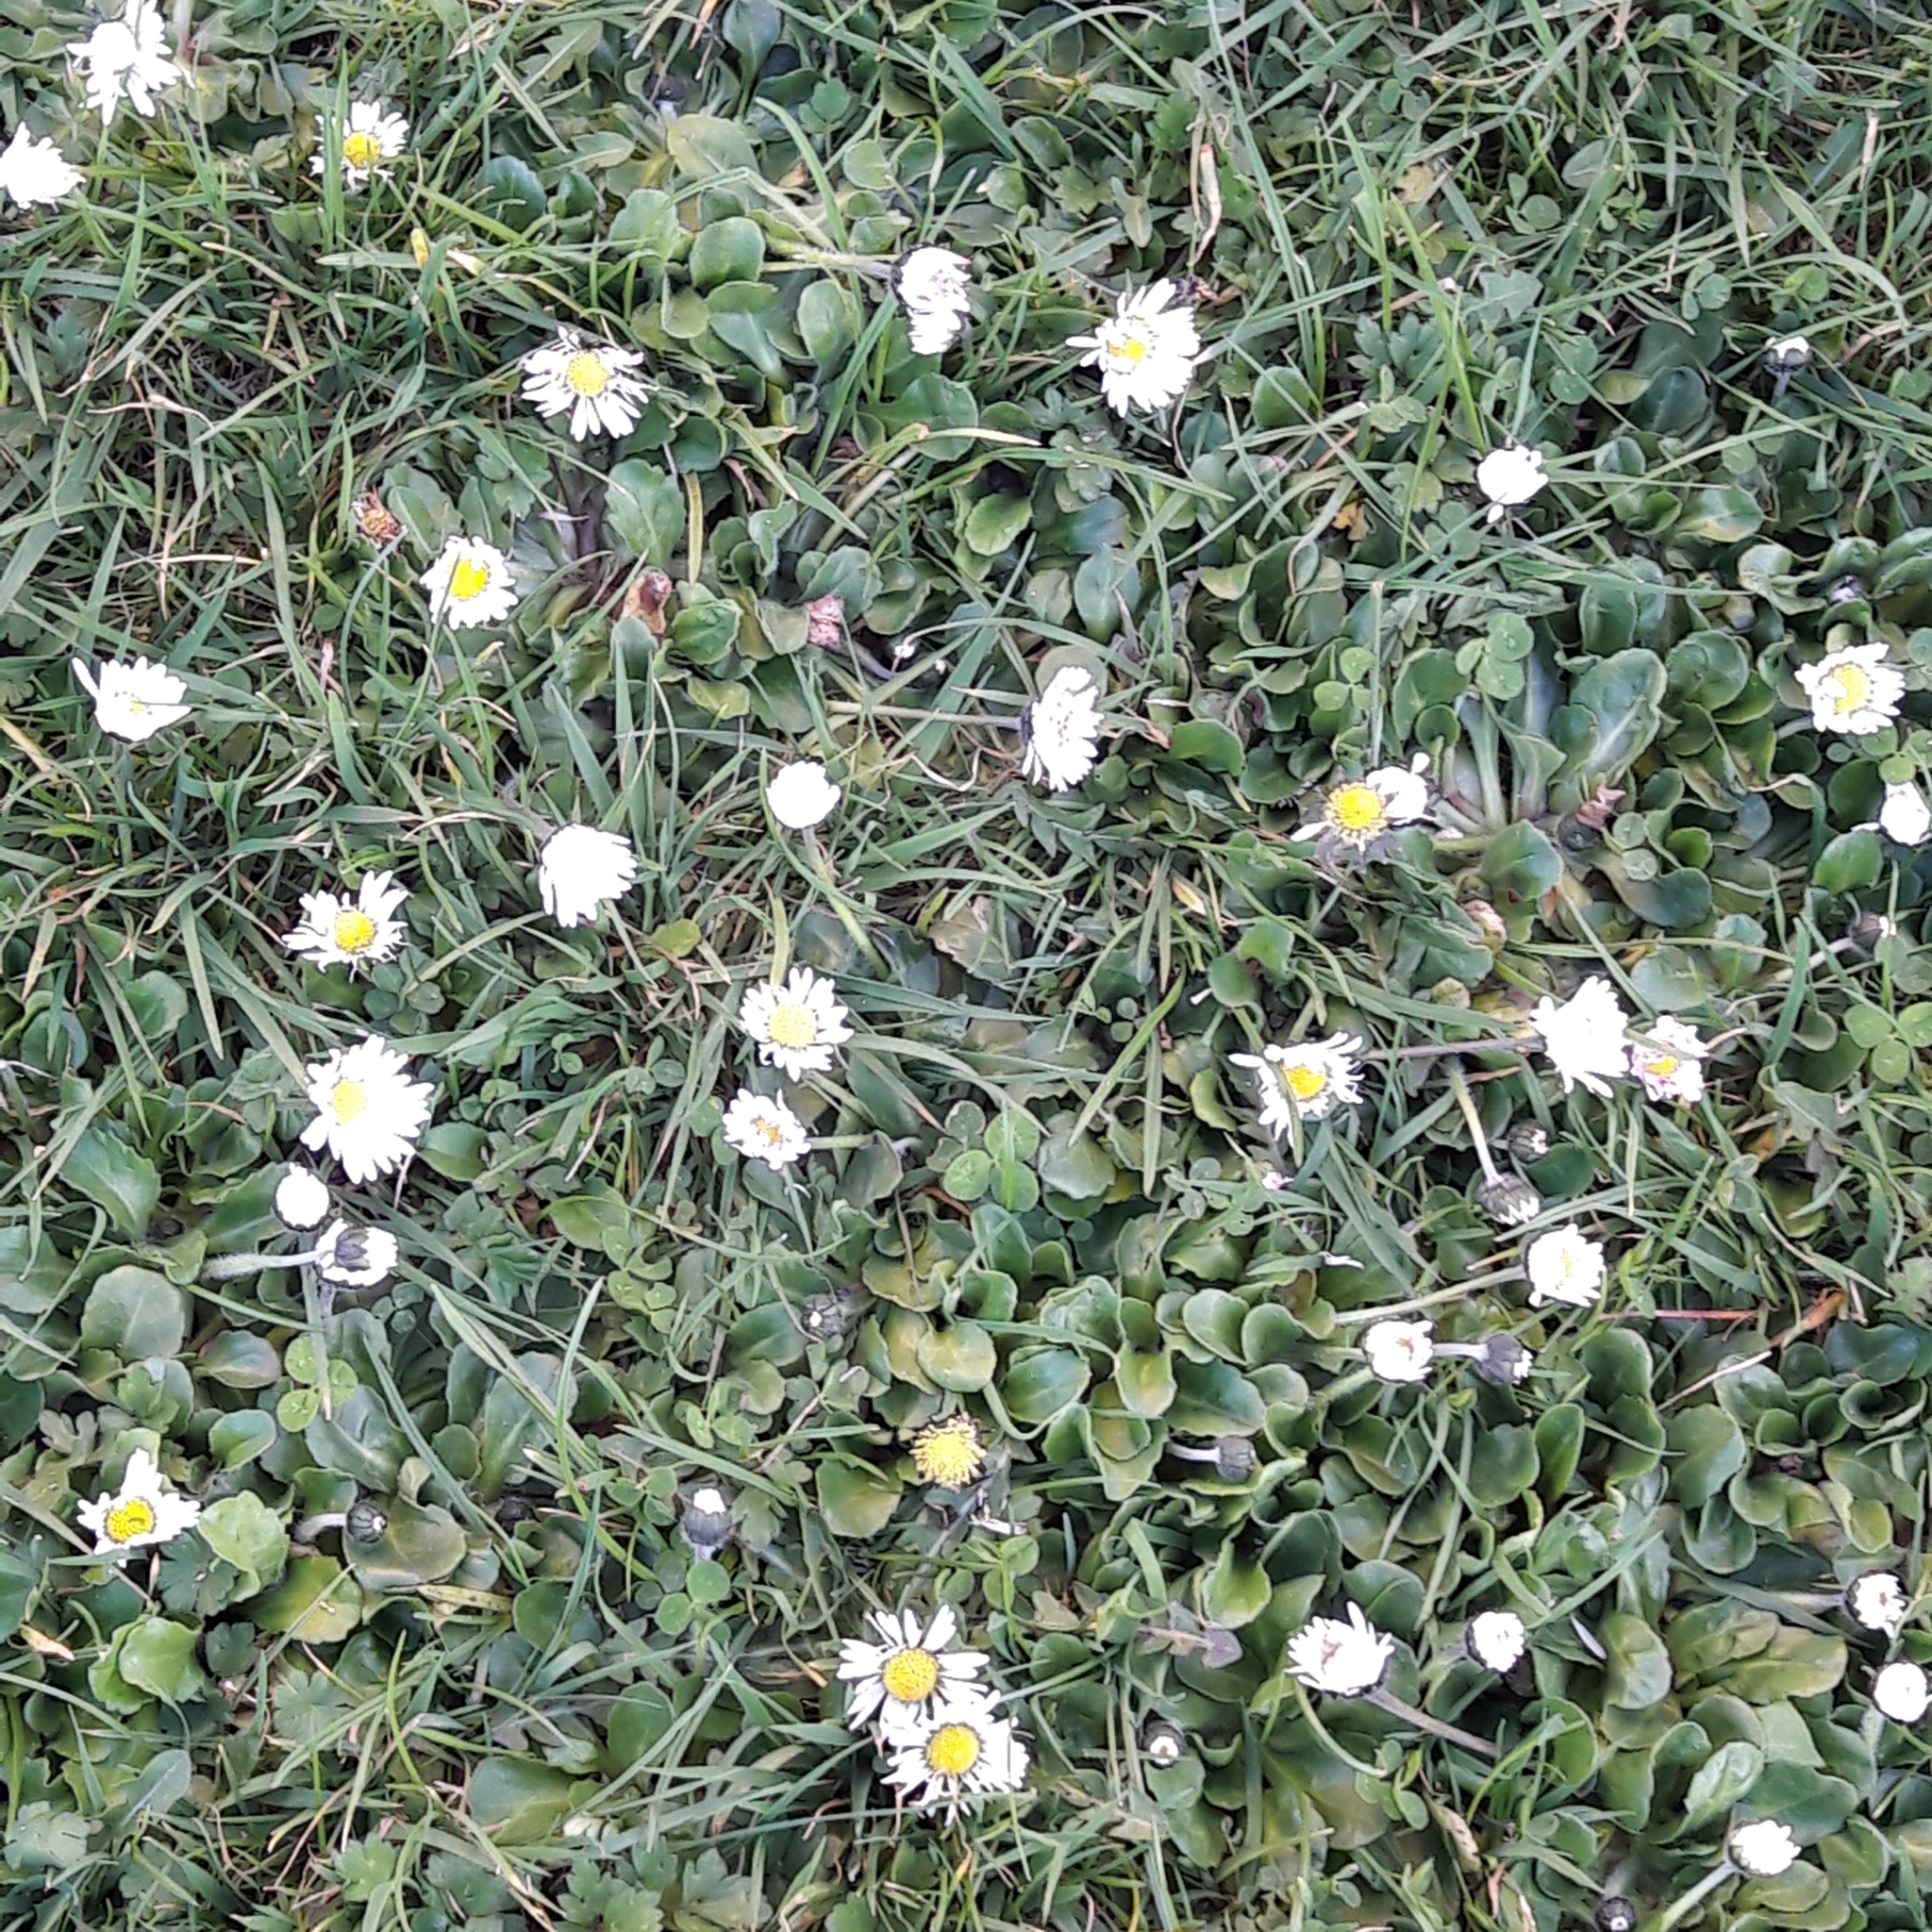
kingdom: Plantae
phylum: Tracheophyta
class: Magnoliopsida
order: Asterales
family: Asteraceae
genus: Bellis
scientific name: Bellis perennis
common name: Lawndaisy
